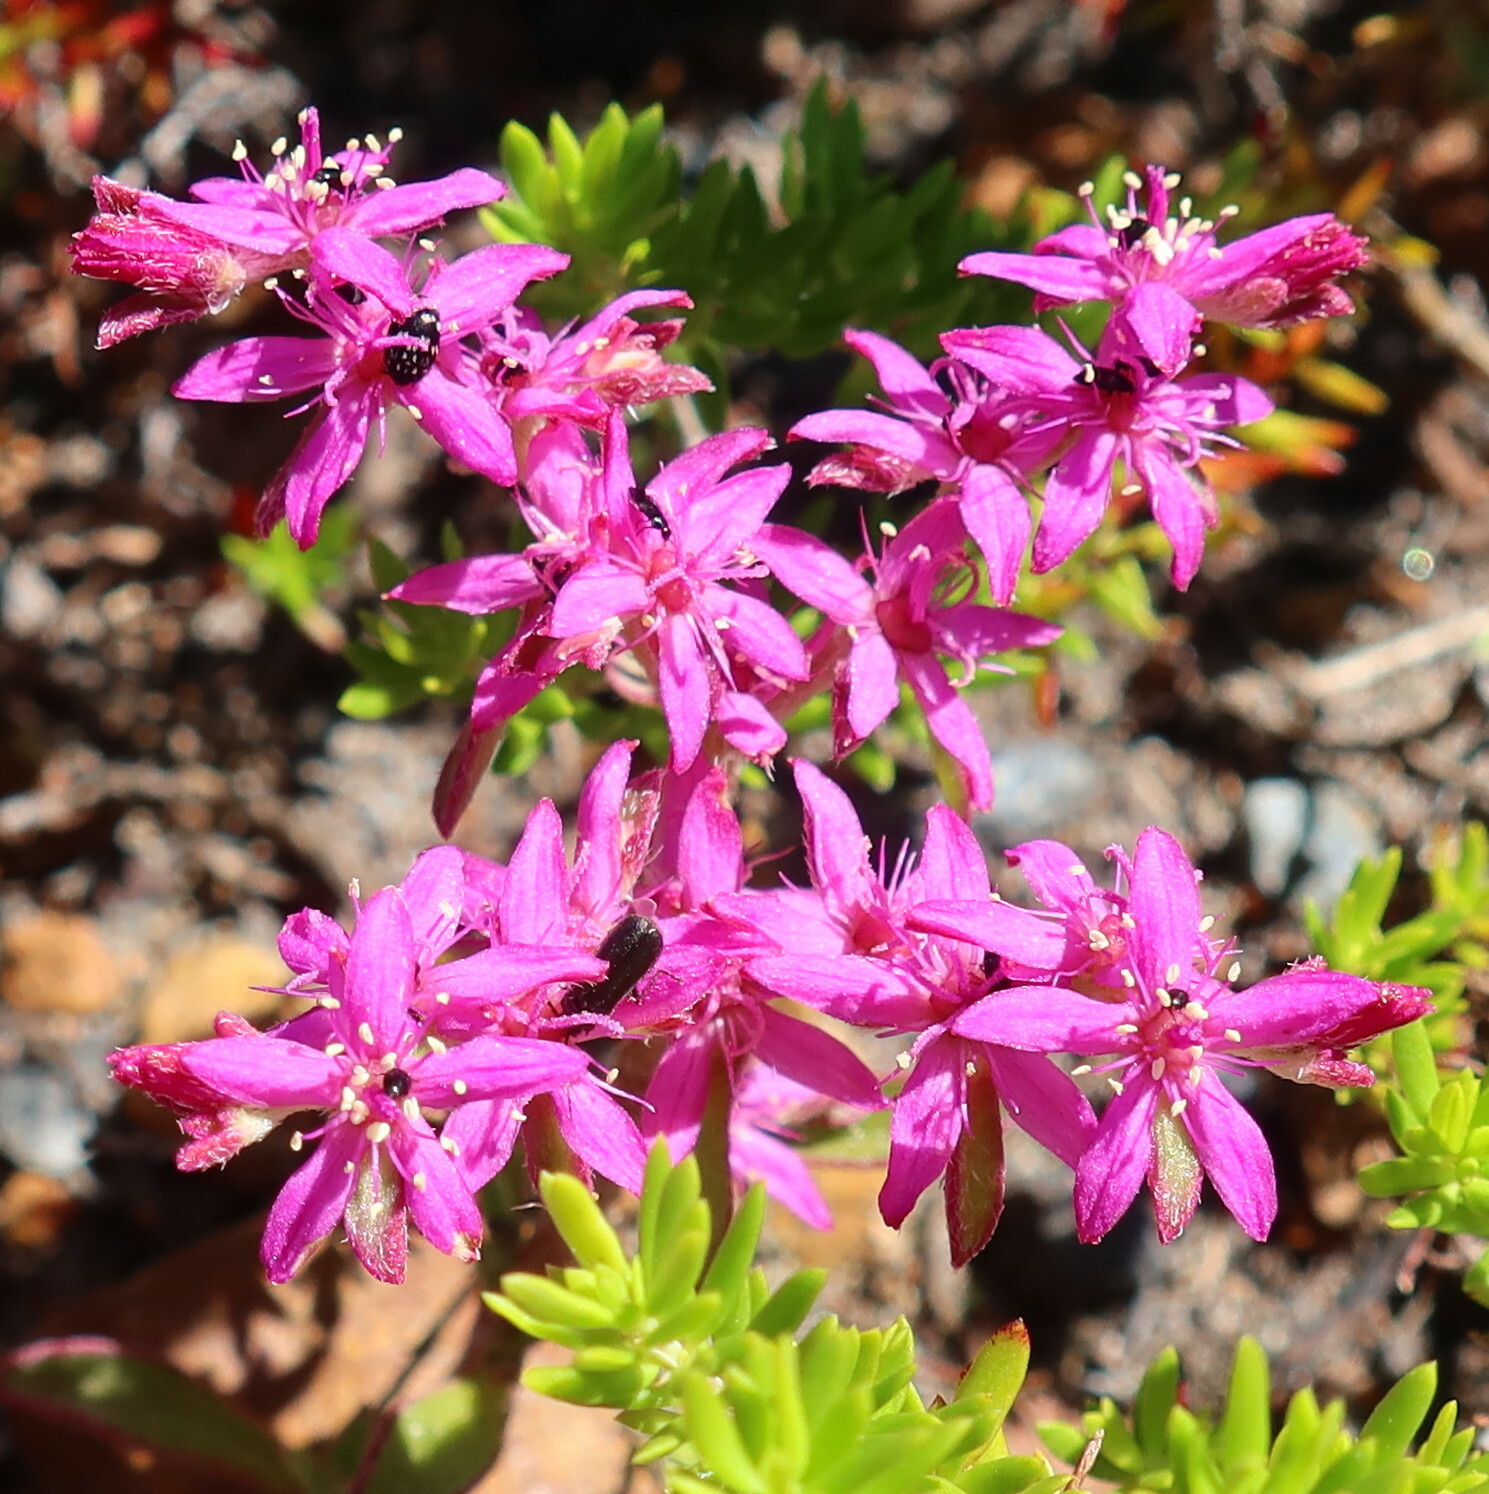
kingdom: Plantae
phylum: Tracheophyta
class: Magnoliopsida
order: Caryophyllales
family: Aizoaceae
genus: Aizoon
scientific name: Aizoon paniculatum
